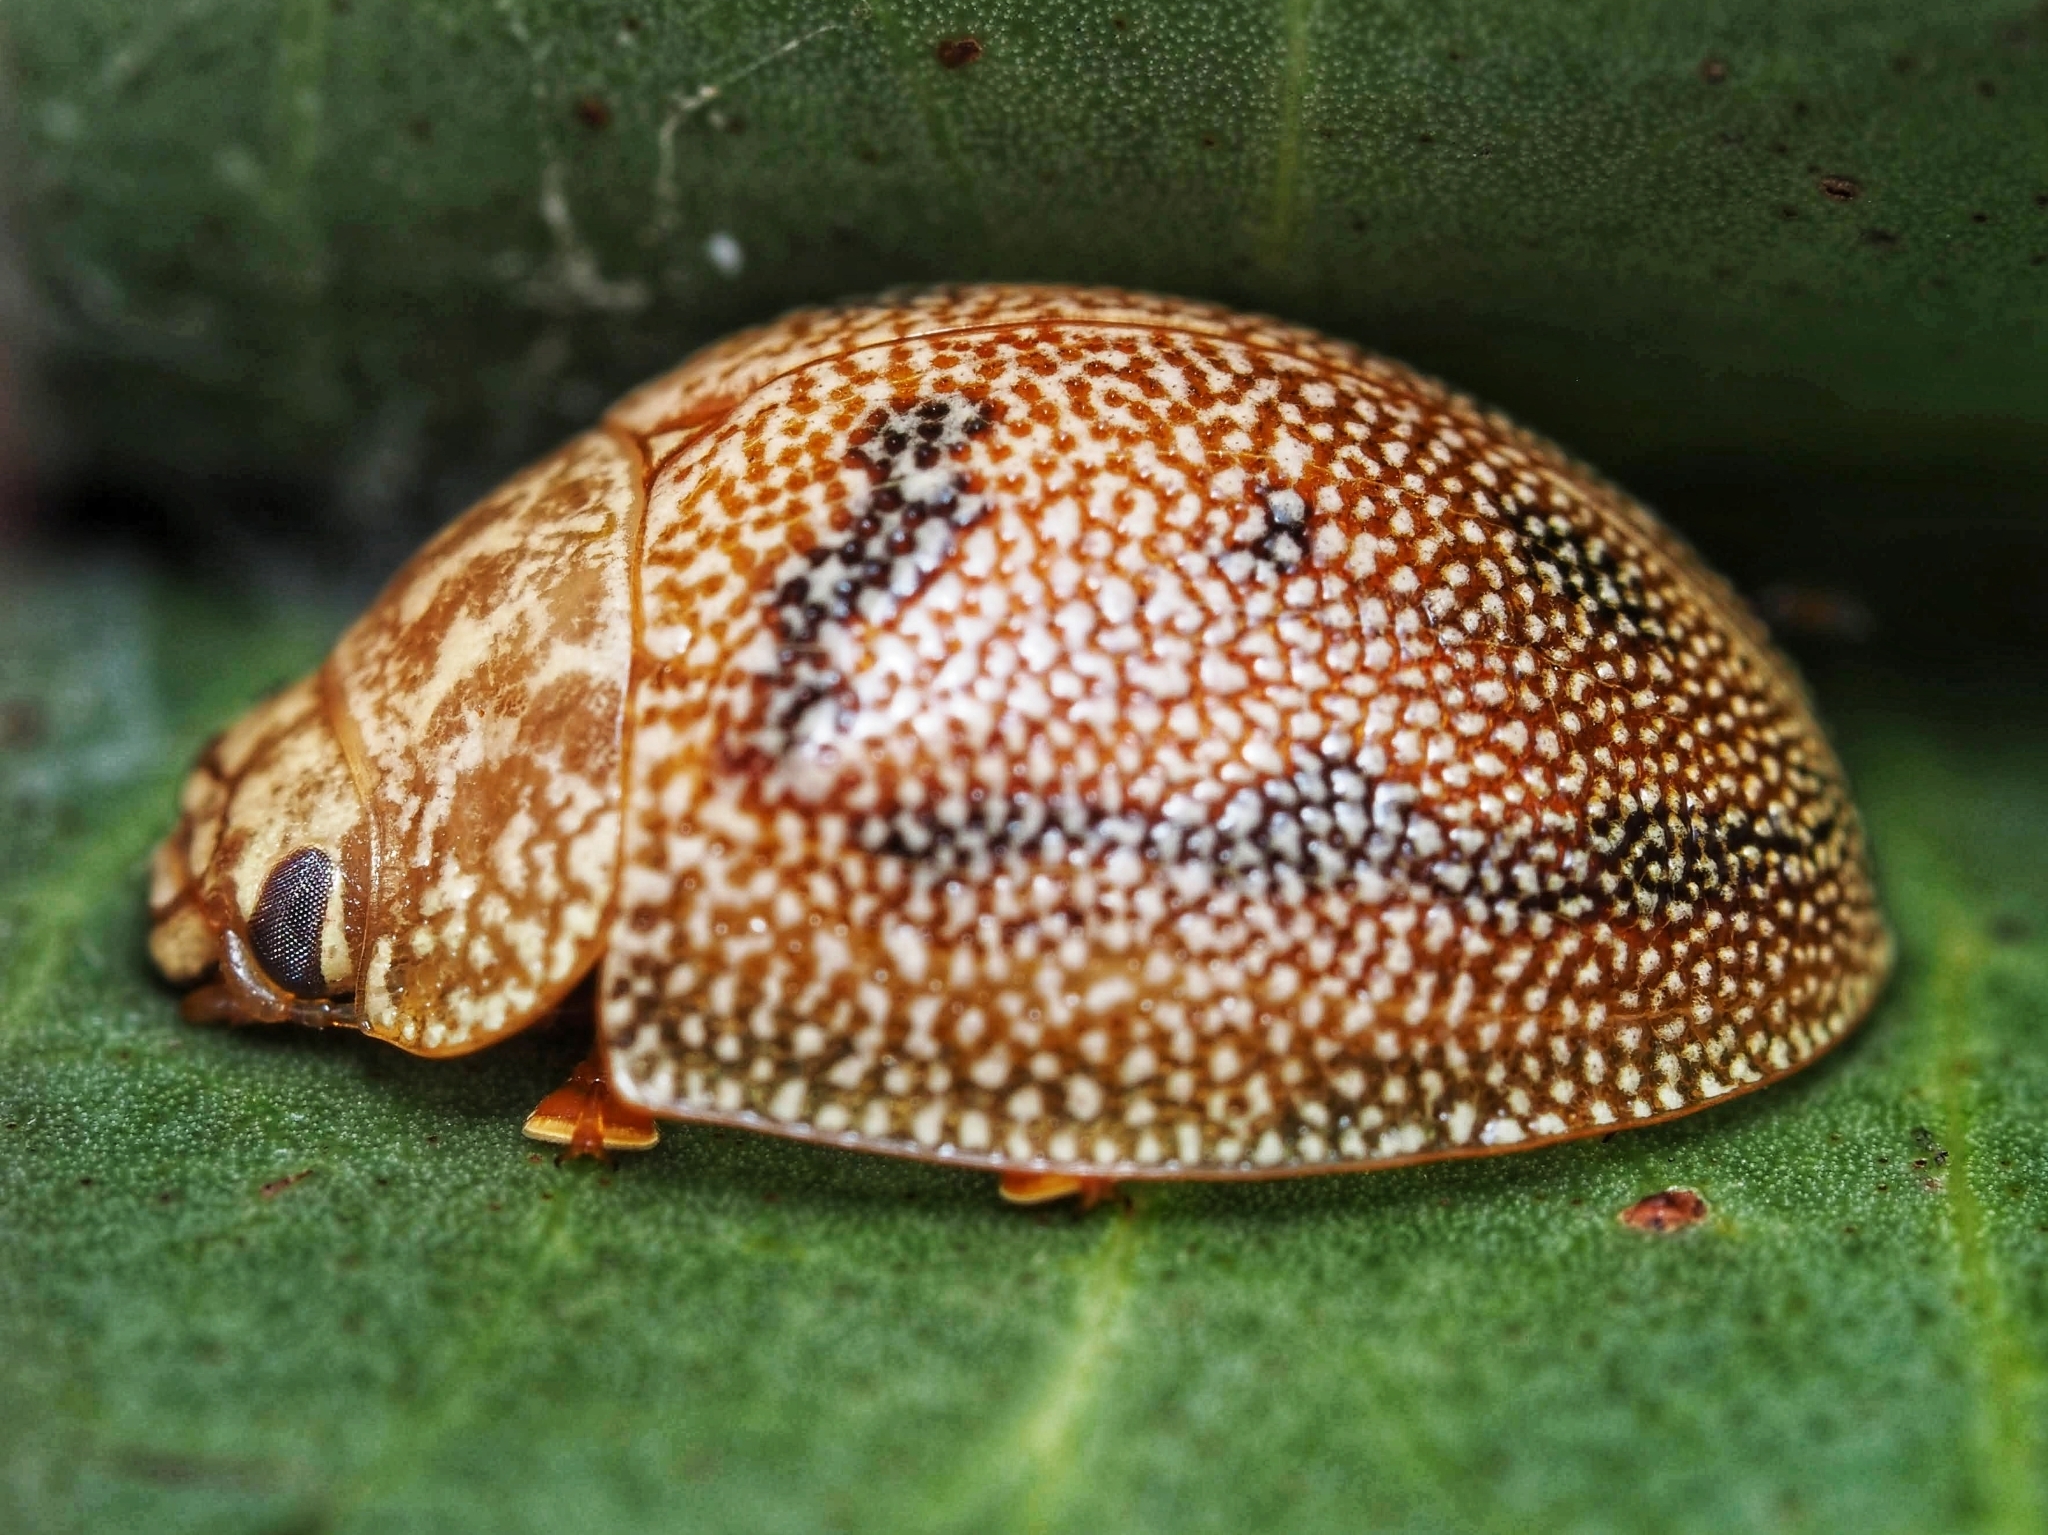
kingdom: Animalia
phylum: Arthropoda
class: Insecta
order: Coleoptera
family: Chrysomelidae
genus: Paropsis
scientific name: Paropsis
